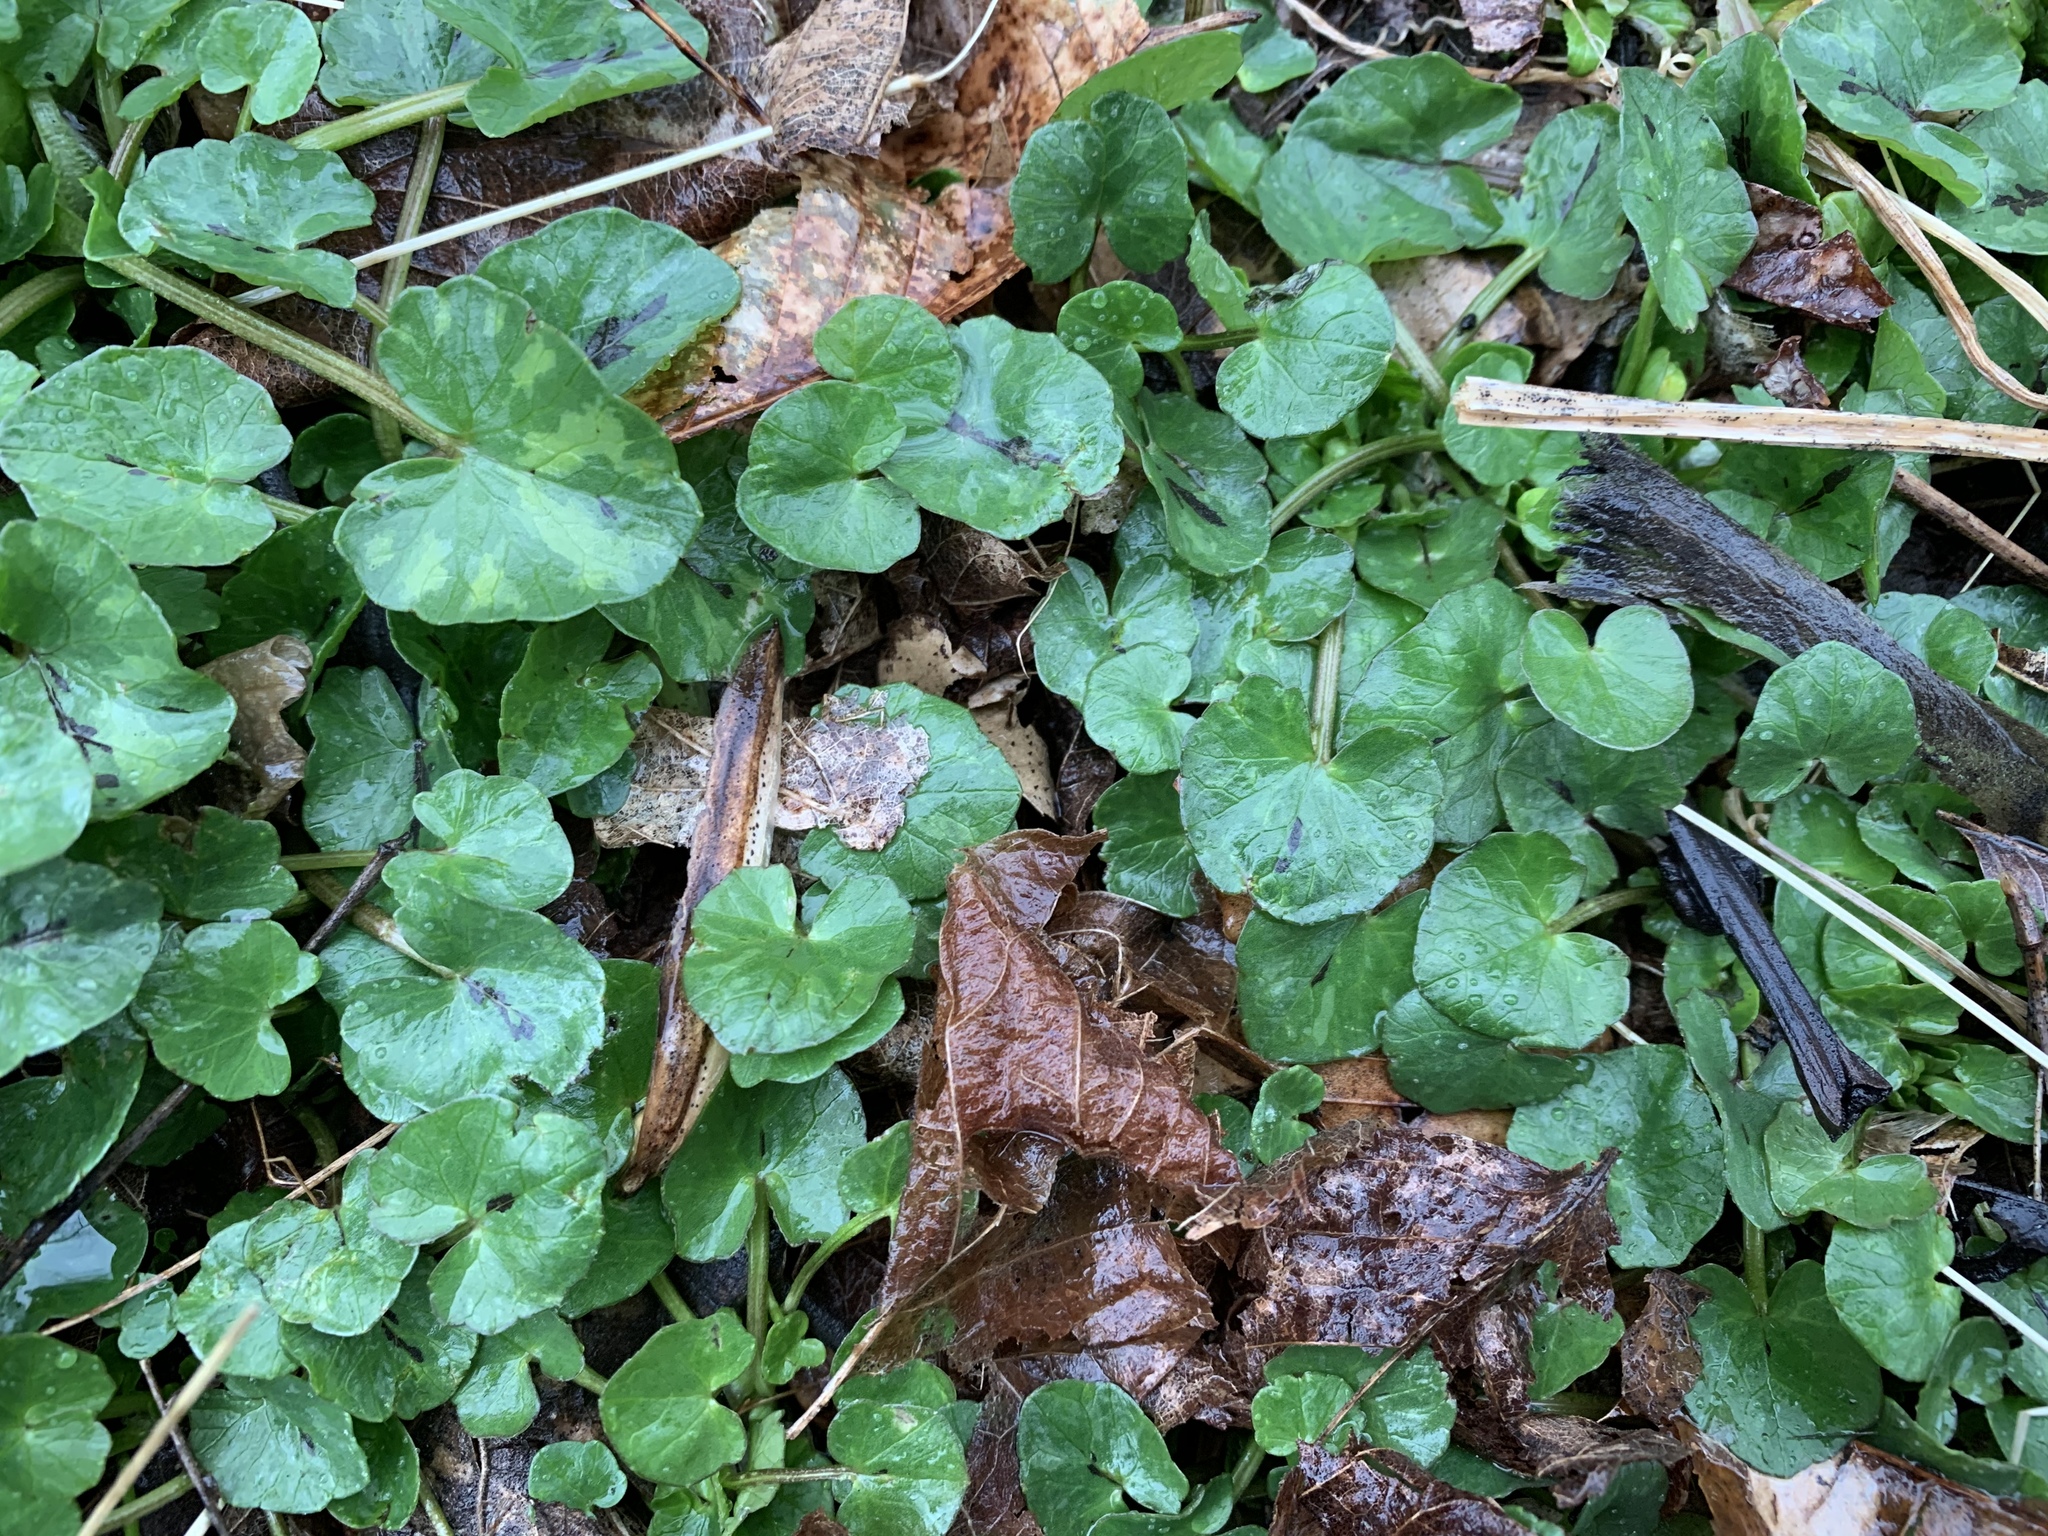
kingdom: Plantae
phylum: Tracheophyta
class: Magnoliopsida
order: Ranunculales
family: Ranunculaceae
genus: Ficaria
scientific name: Ficaria verna
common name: Lesser celandine
